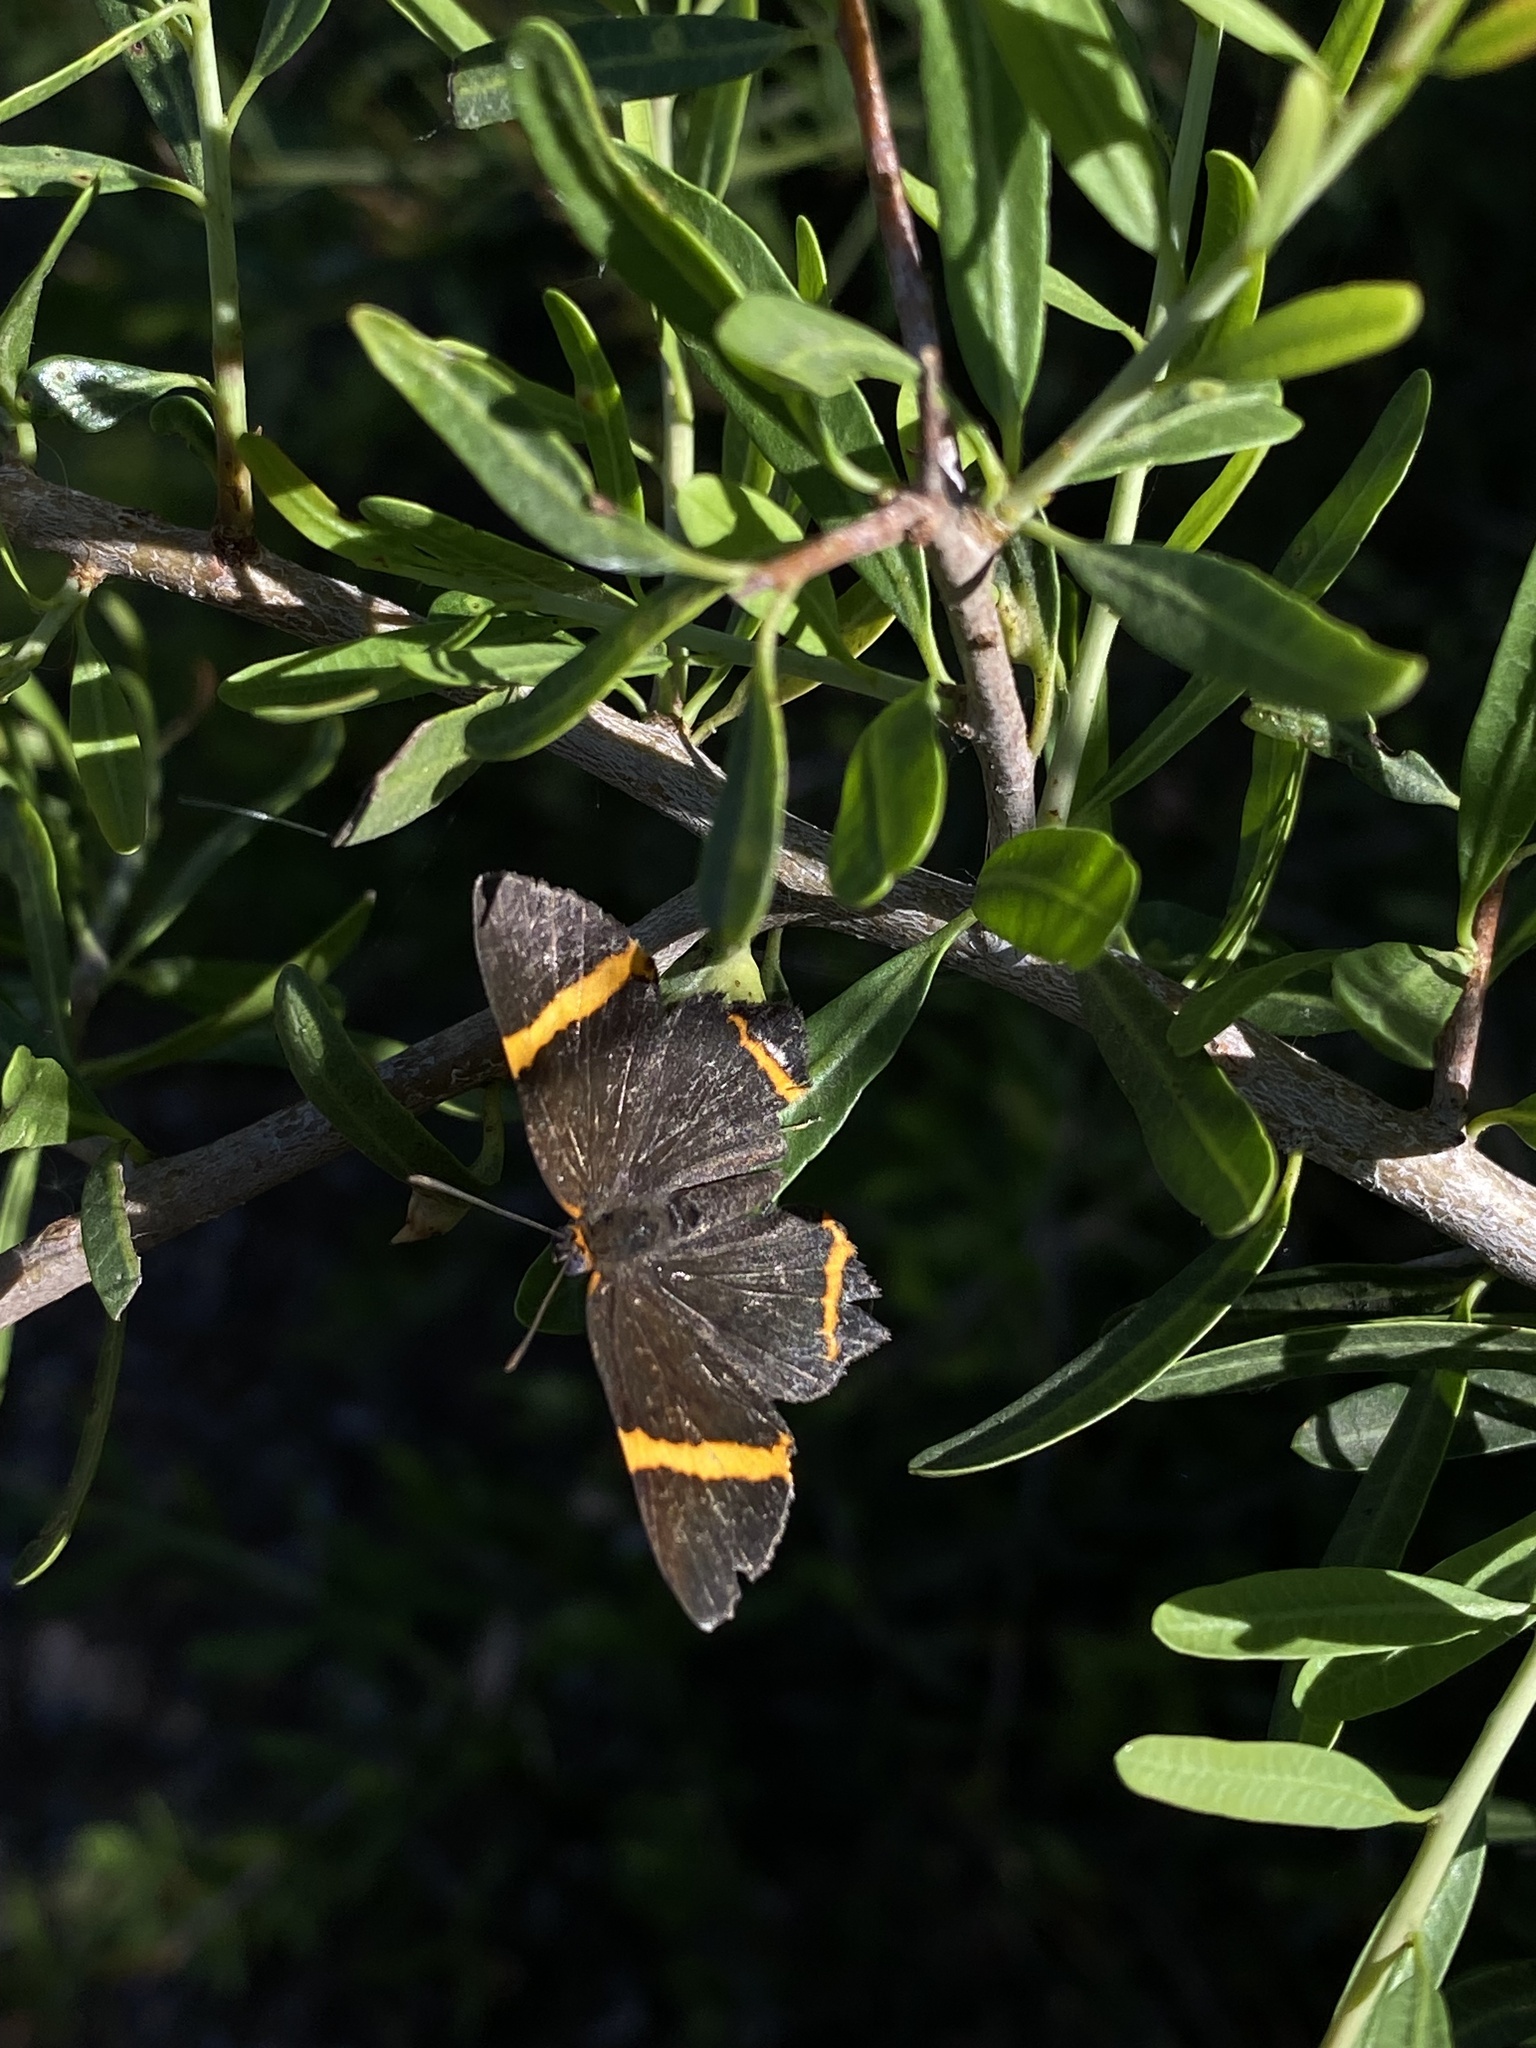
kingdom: Animalia
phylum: Arthropoda
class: Insecta
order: Lepidoptera
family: Riodinidae
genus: Riodina
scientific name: Riodina lysippoides
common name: Little dancer metalmark
